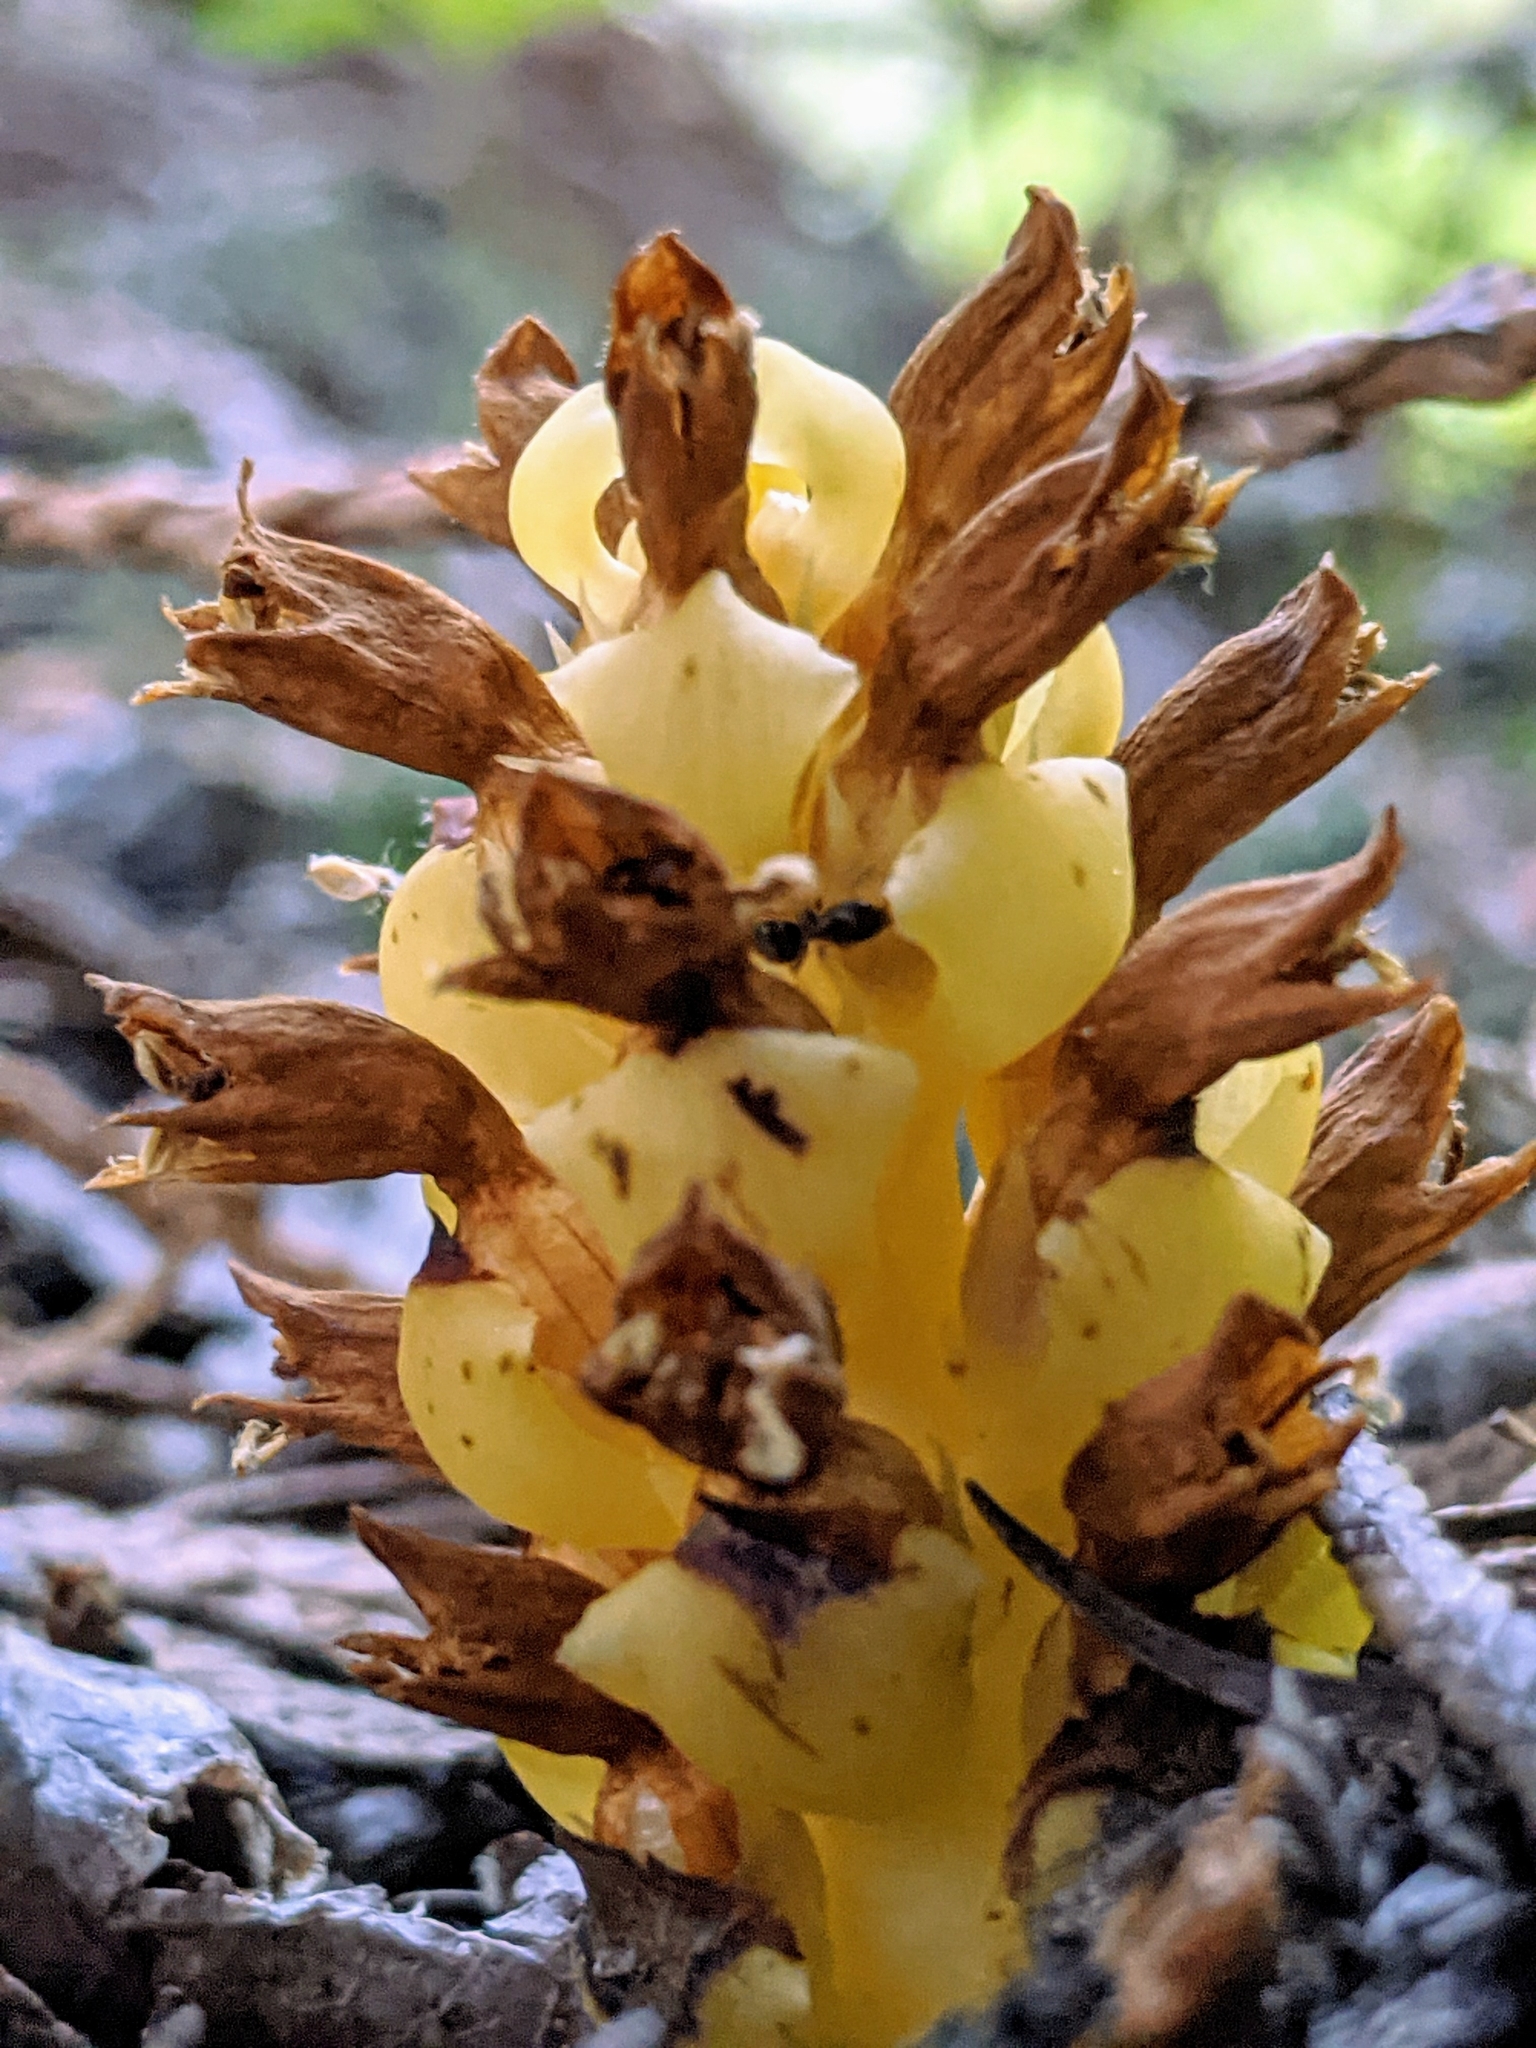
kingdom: Plantae
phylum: Tracheophyta
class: Magnoliopsida
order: Lamiales
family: Orobanchaceae
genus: Kopsiopsis
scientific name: Kopsiopsis hookeri
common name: Hooker's groundcone
